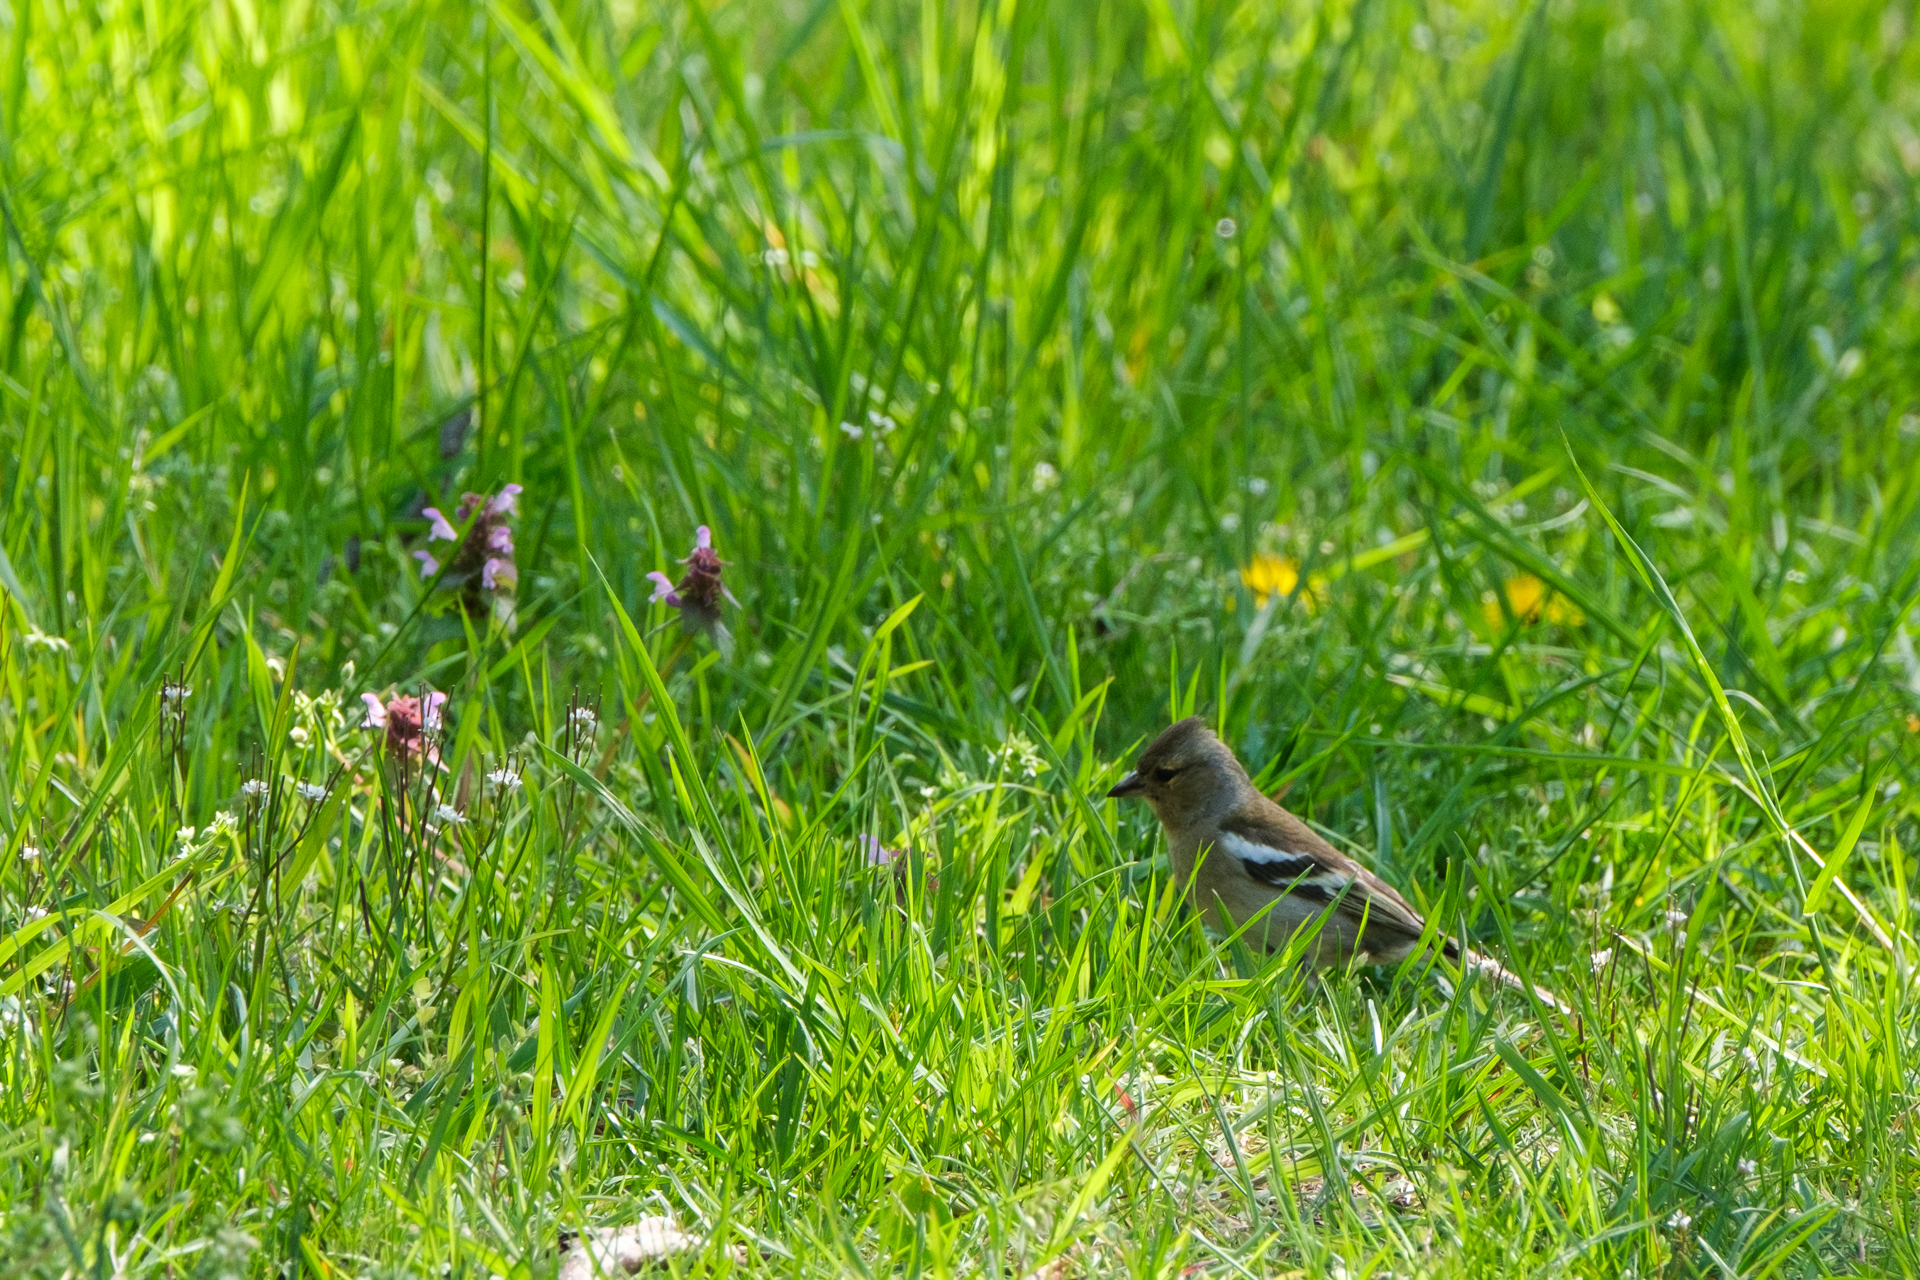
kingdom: Animalia
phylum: Chordata
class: Aves
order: Passeriformes
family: Fringillidae
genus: Fringilla
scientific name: Fringilla coelebs
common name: Common chaffinch
